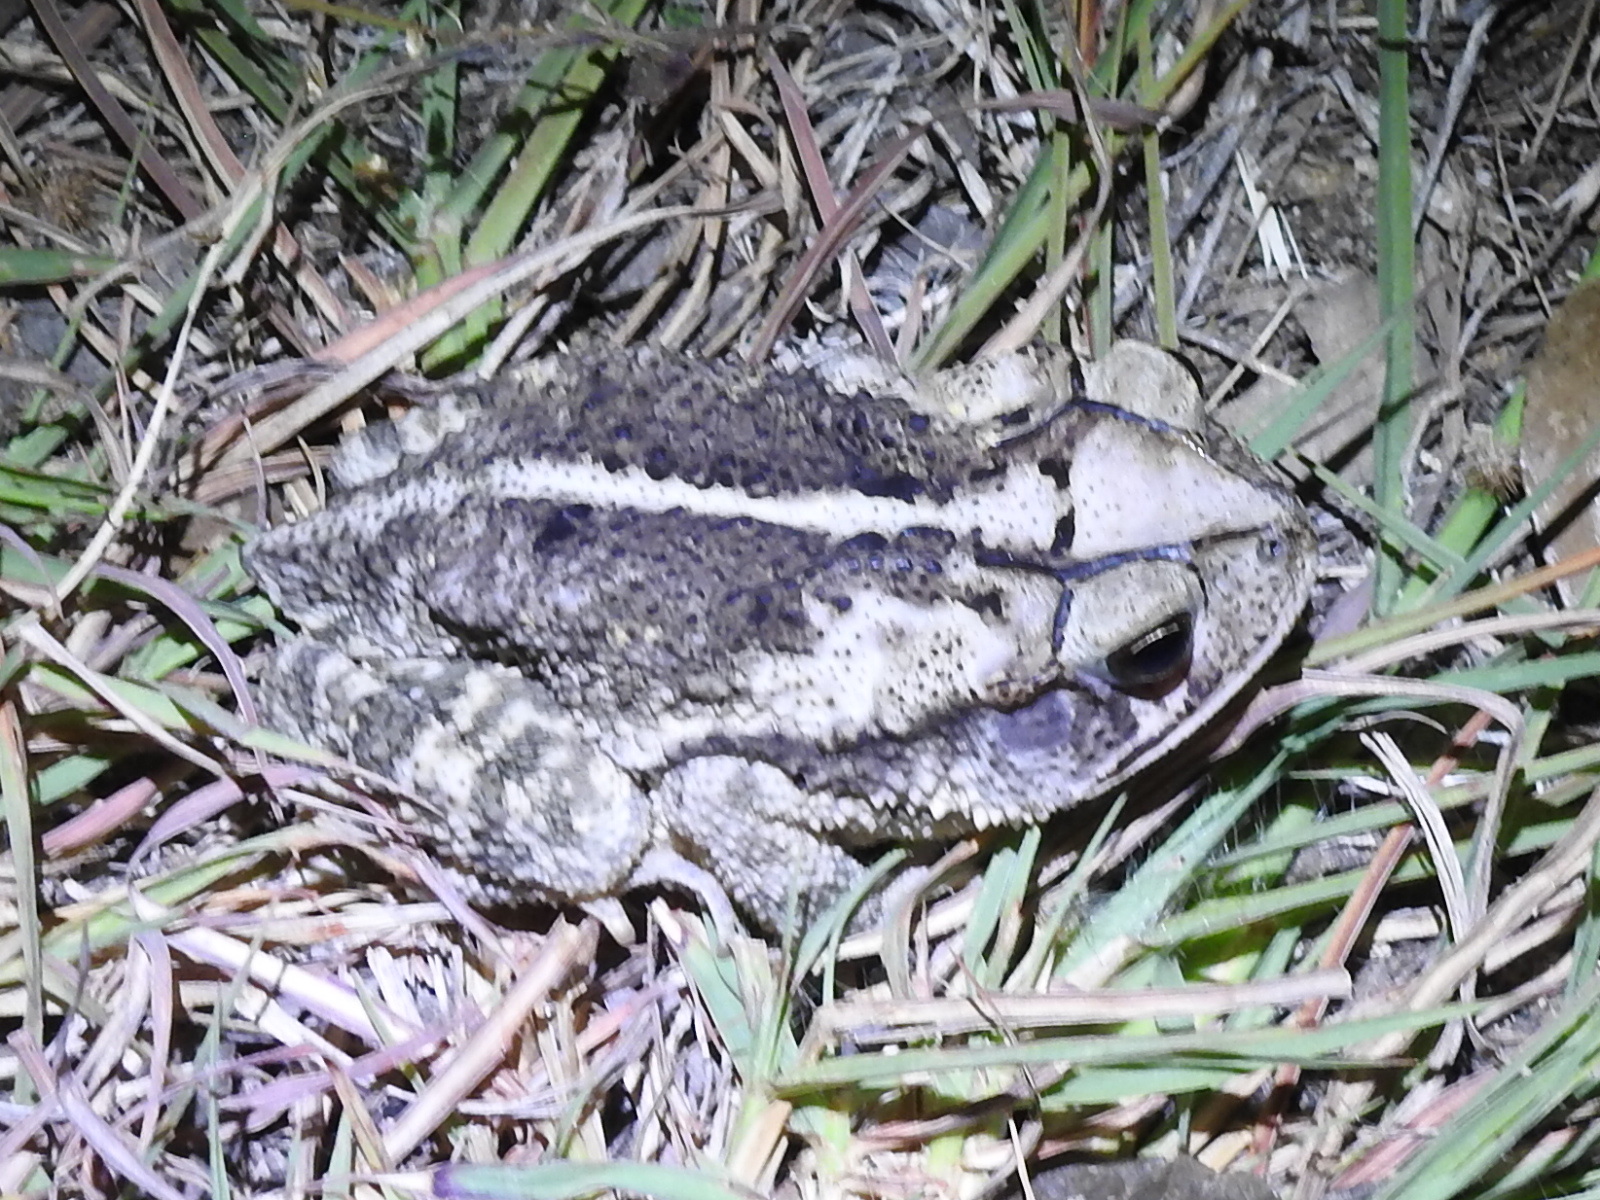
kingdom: Animalia
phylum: Chordata
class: Amphibia
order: Anura
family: Bufonidae
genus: Incilius
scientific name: Incilius nebulifer
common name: Gulf coast toad
